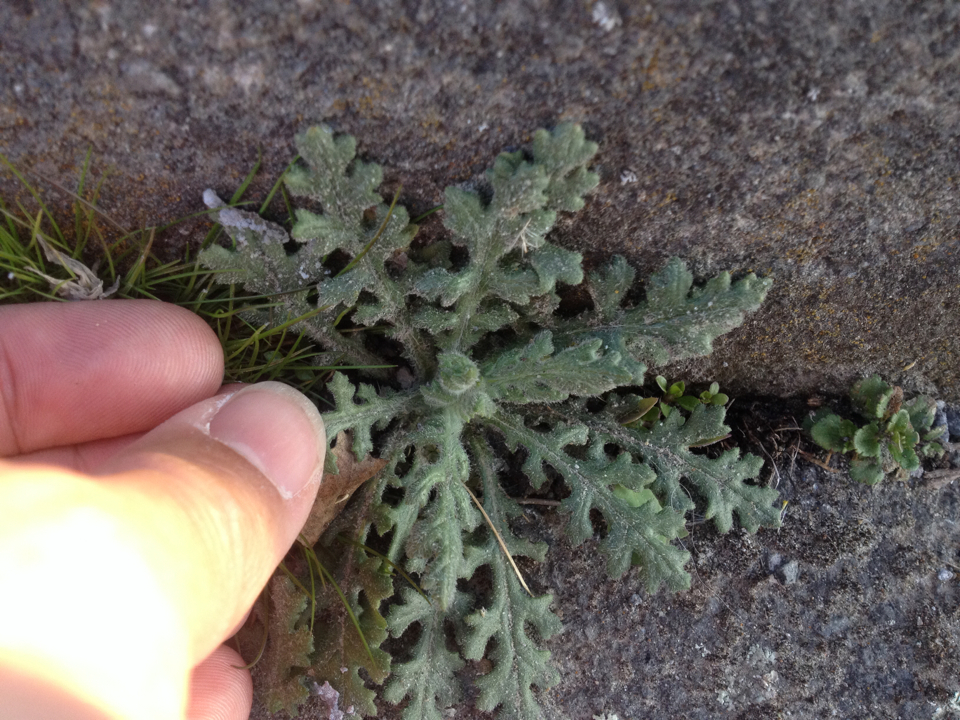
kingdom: Plantae
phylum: Tracheophyta
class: Magnoliopsida
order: Asterales
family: Asteraceae
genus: Senecio
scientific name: Senecio sylvaticus
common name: Woodland ragwort
